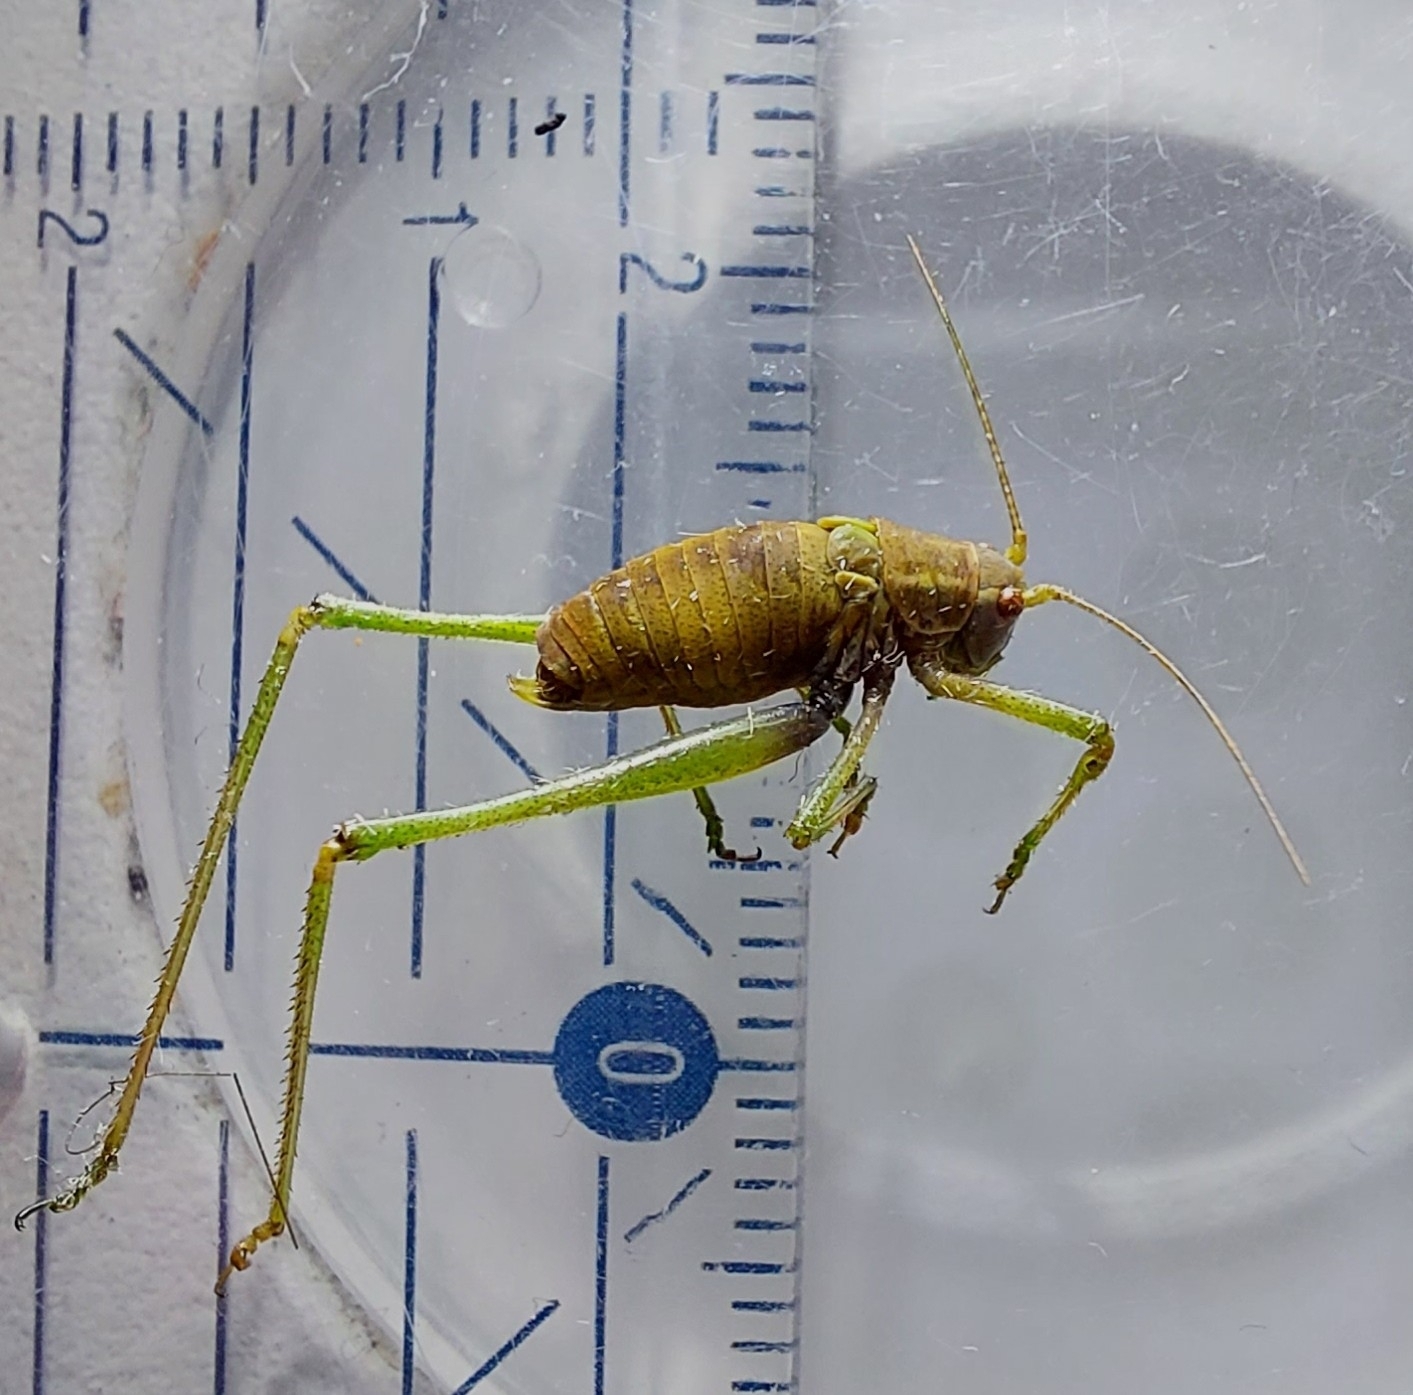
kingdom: Animalia
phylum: Arthropoda
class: Insecta
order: Orthoptera
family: Tettigoniidae
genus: Leptophyes
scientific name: Leptophyes punctatissima
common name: Speckled bush-cricket
